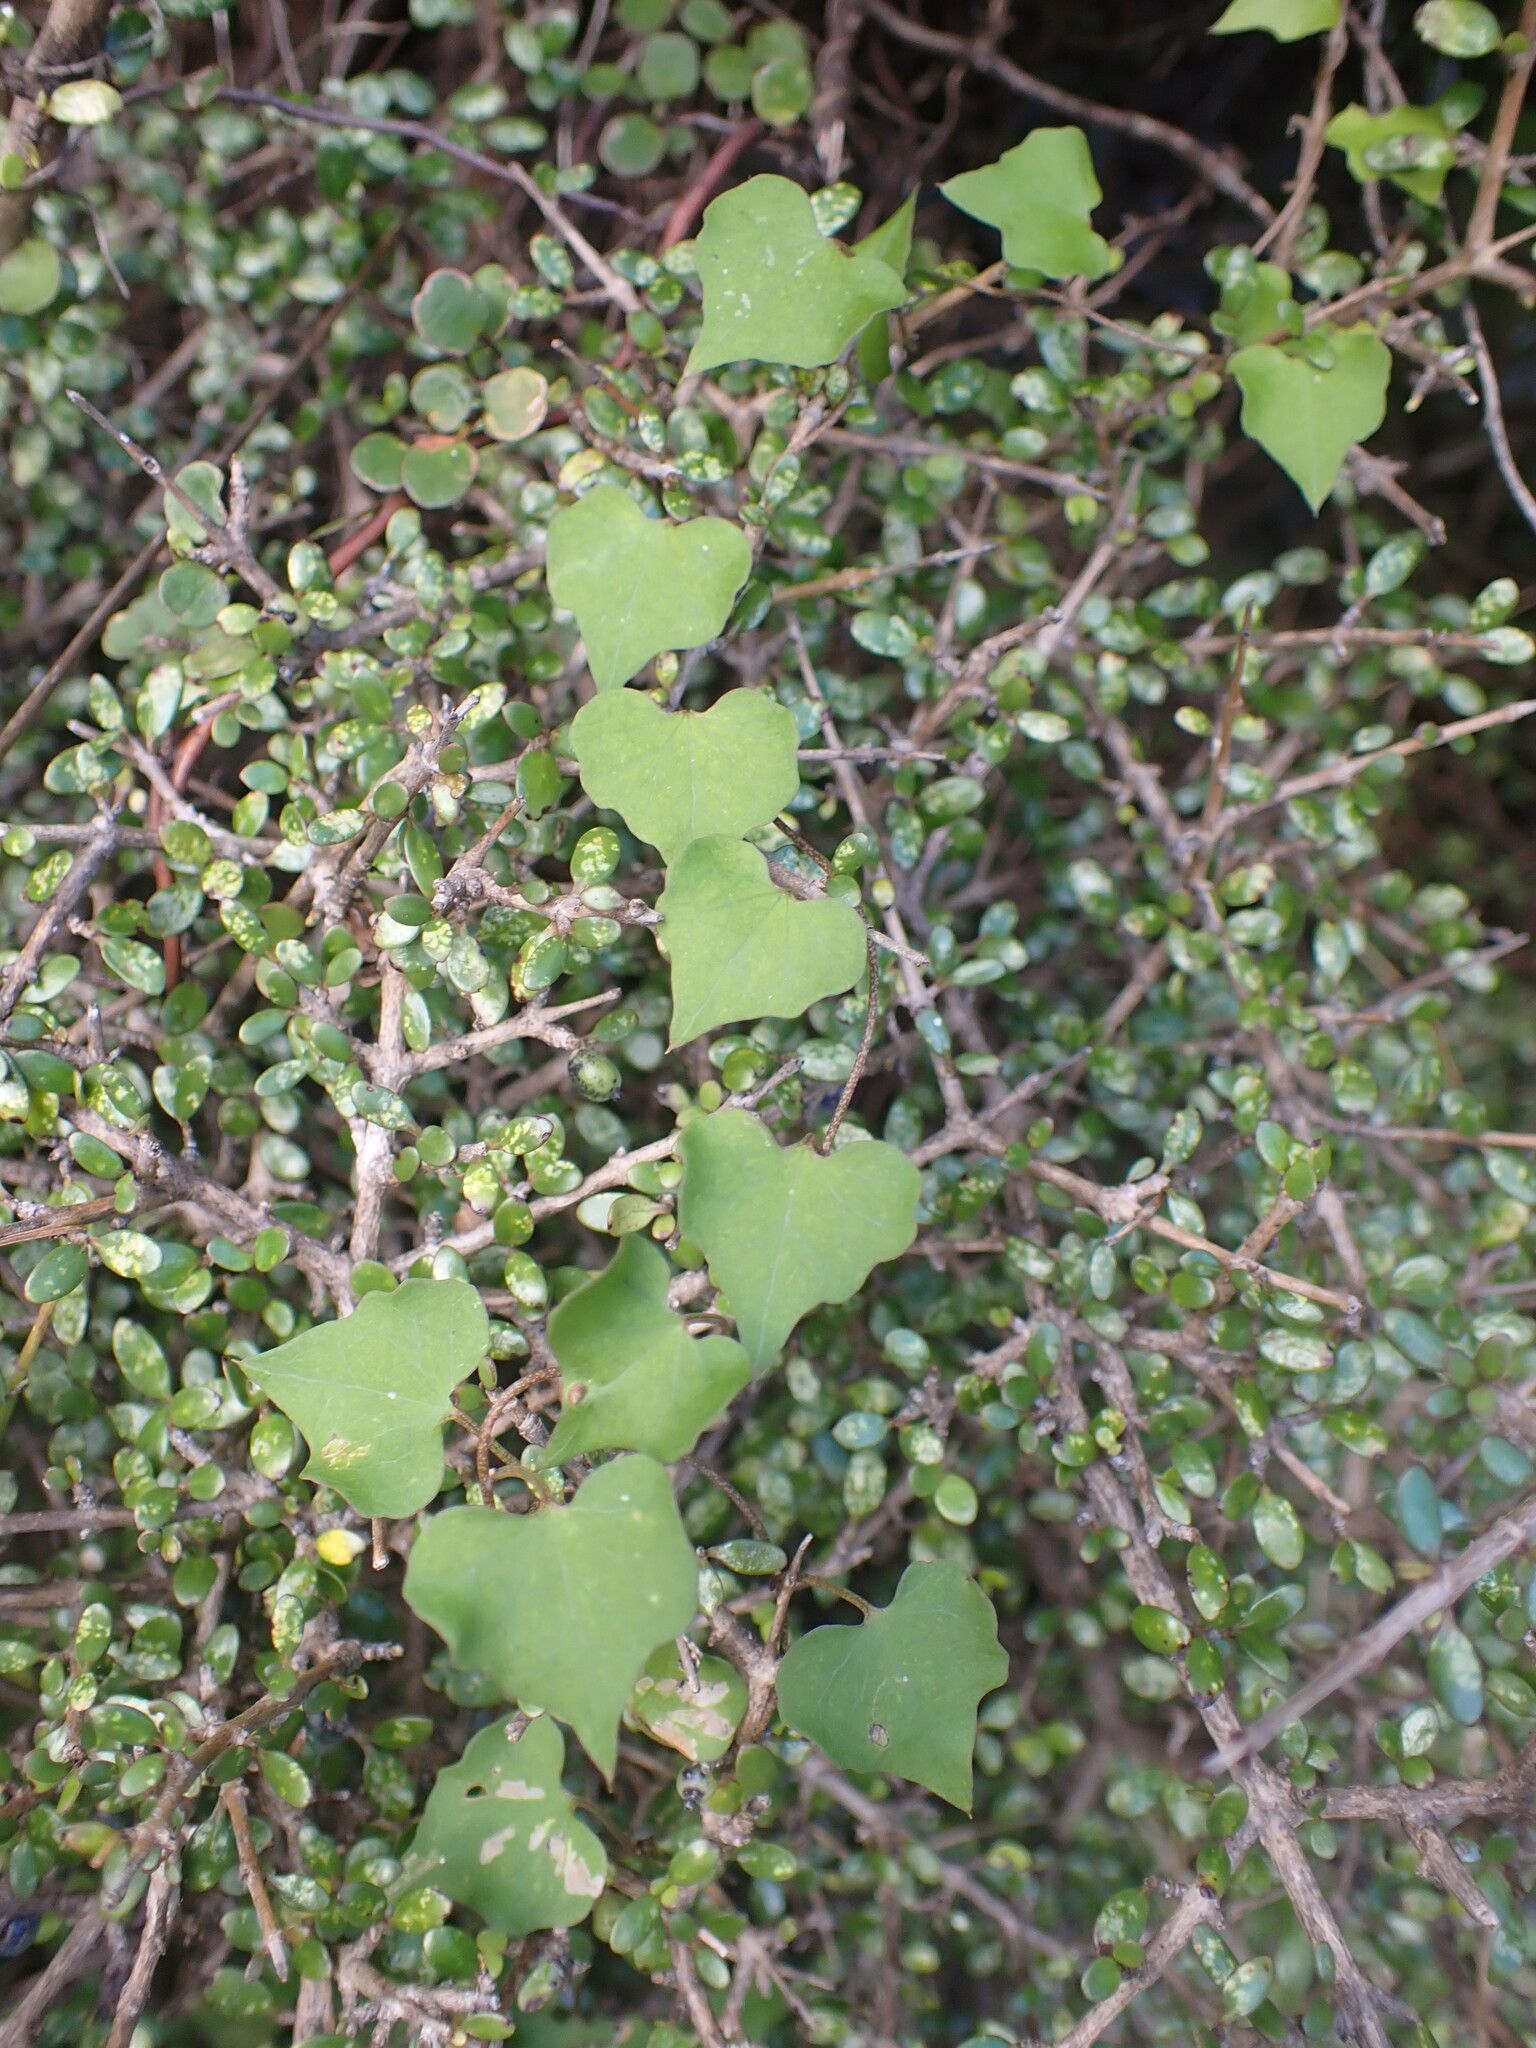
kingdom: Plantae
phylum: Tracheophyta
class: Magnoliopsida
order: Solanales
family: Convolvulaceae
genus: Calystegia
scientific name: Calystegia tuguriorum
